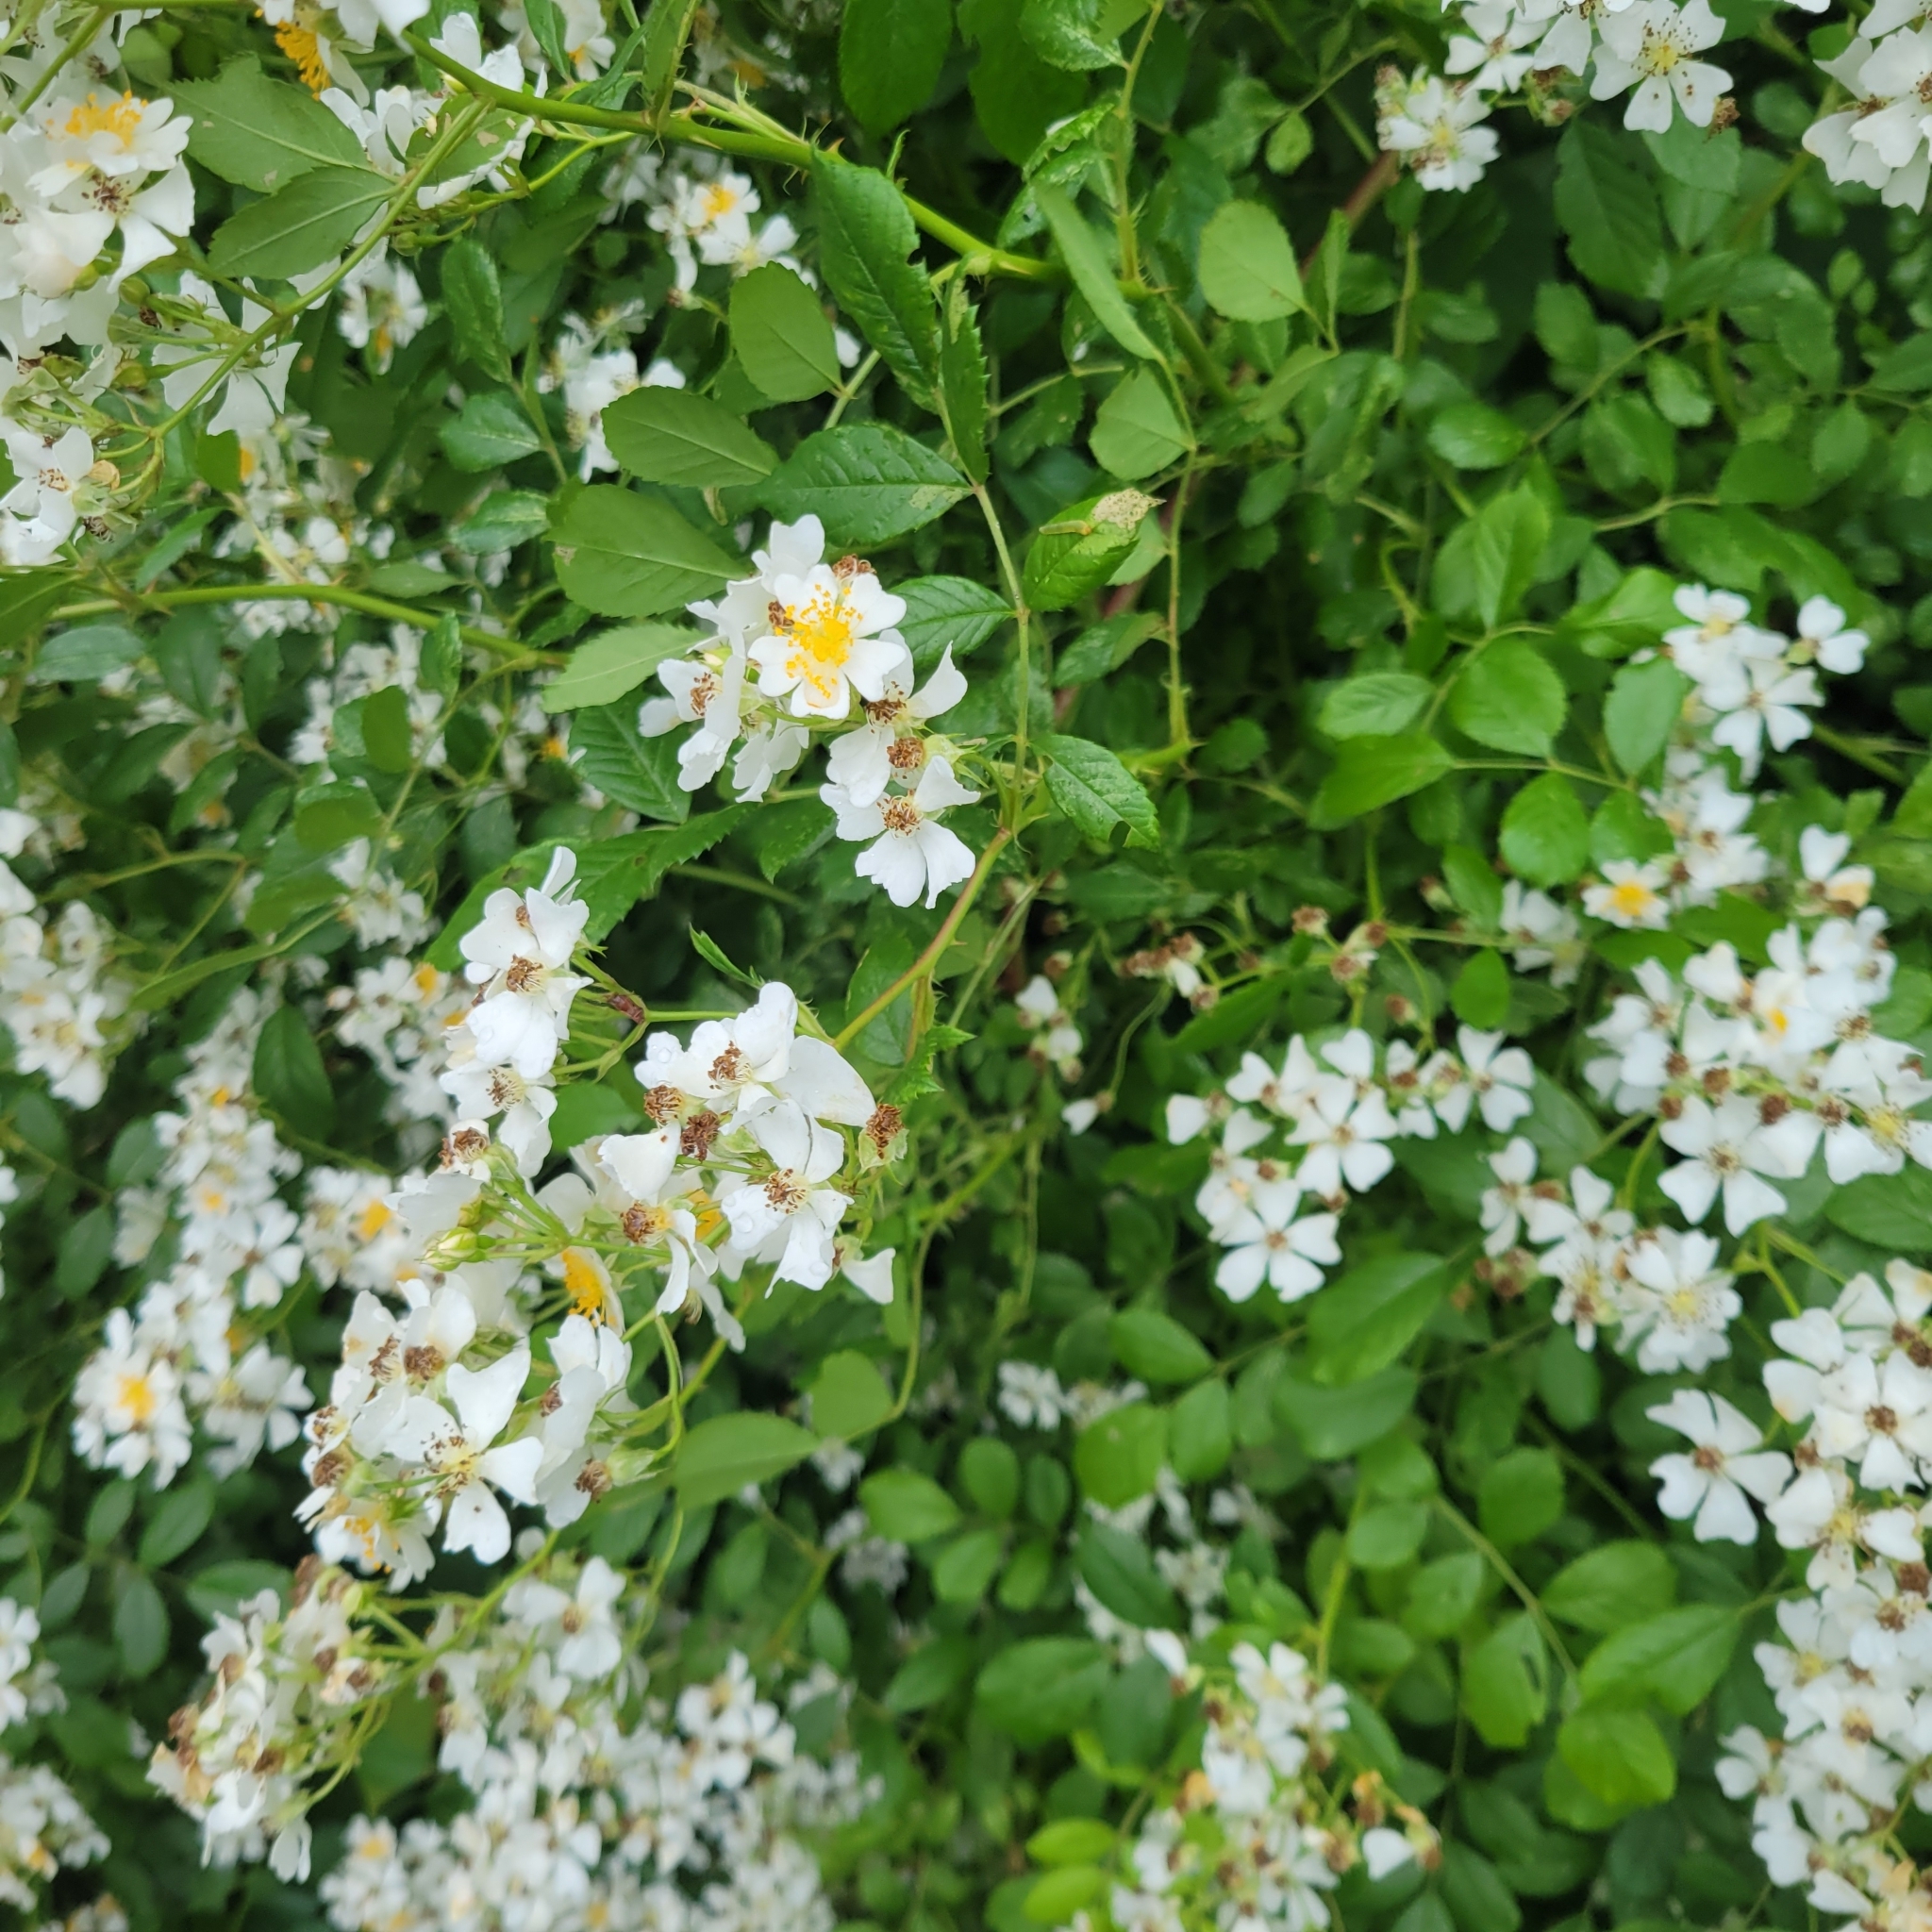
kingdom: Plantae
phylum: Tracheophyta
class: Magnoliopsida
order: Rosales
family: Rosaceae
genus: Rosa
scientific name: Rosa multiflora
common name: Multiflora rose
